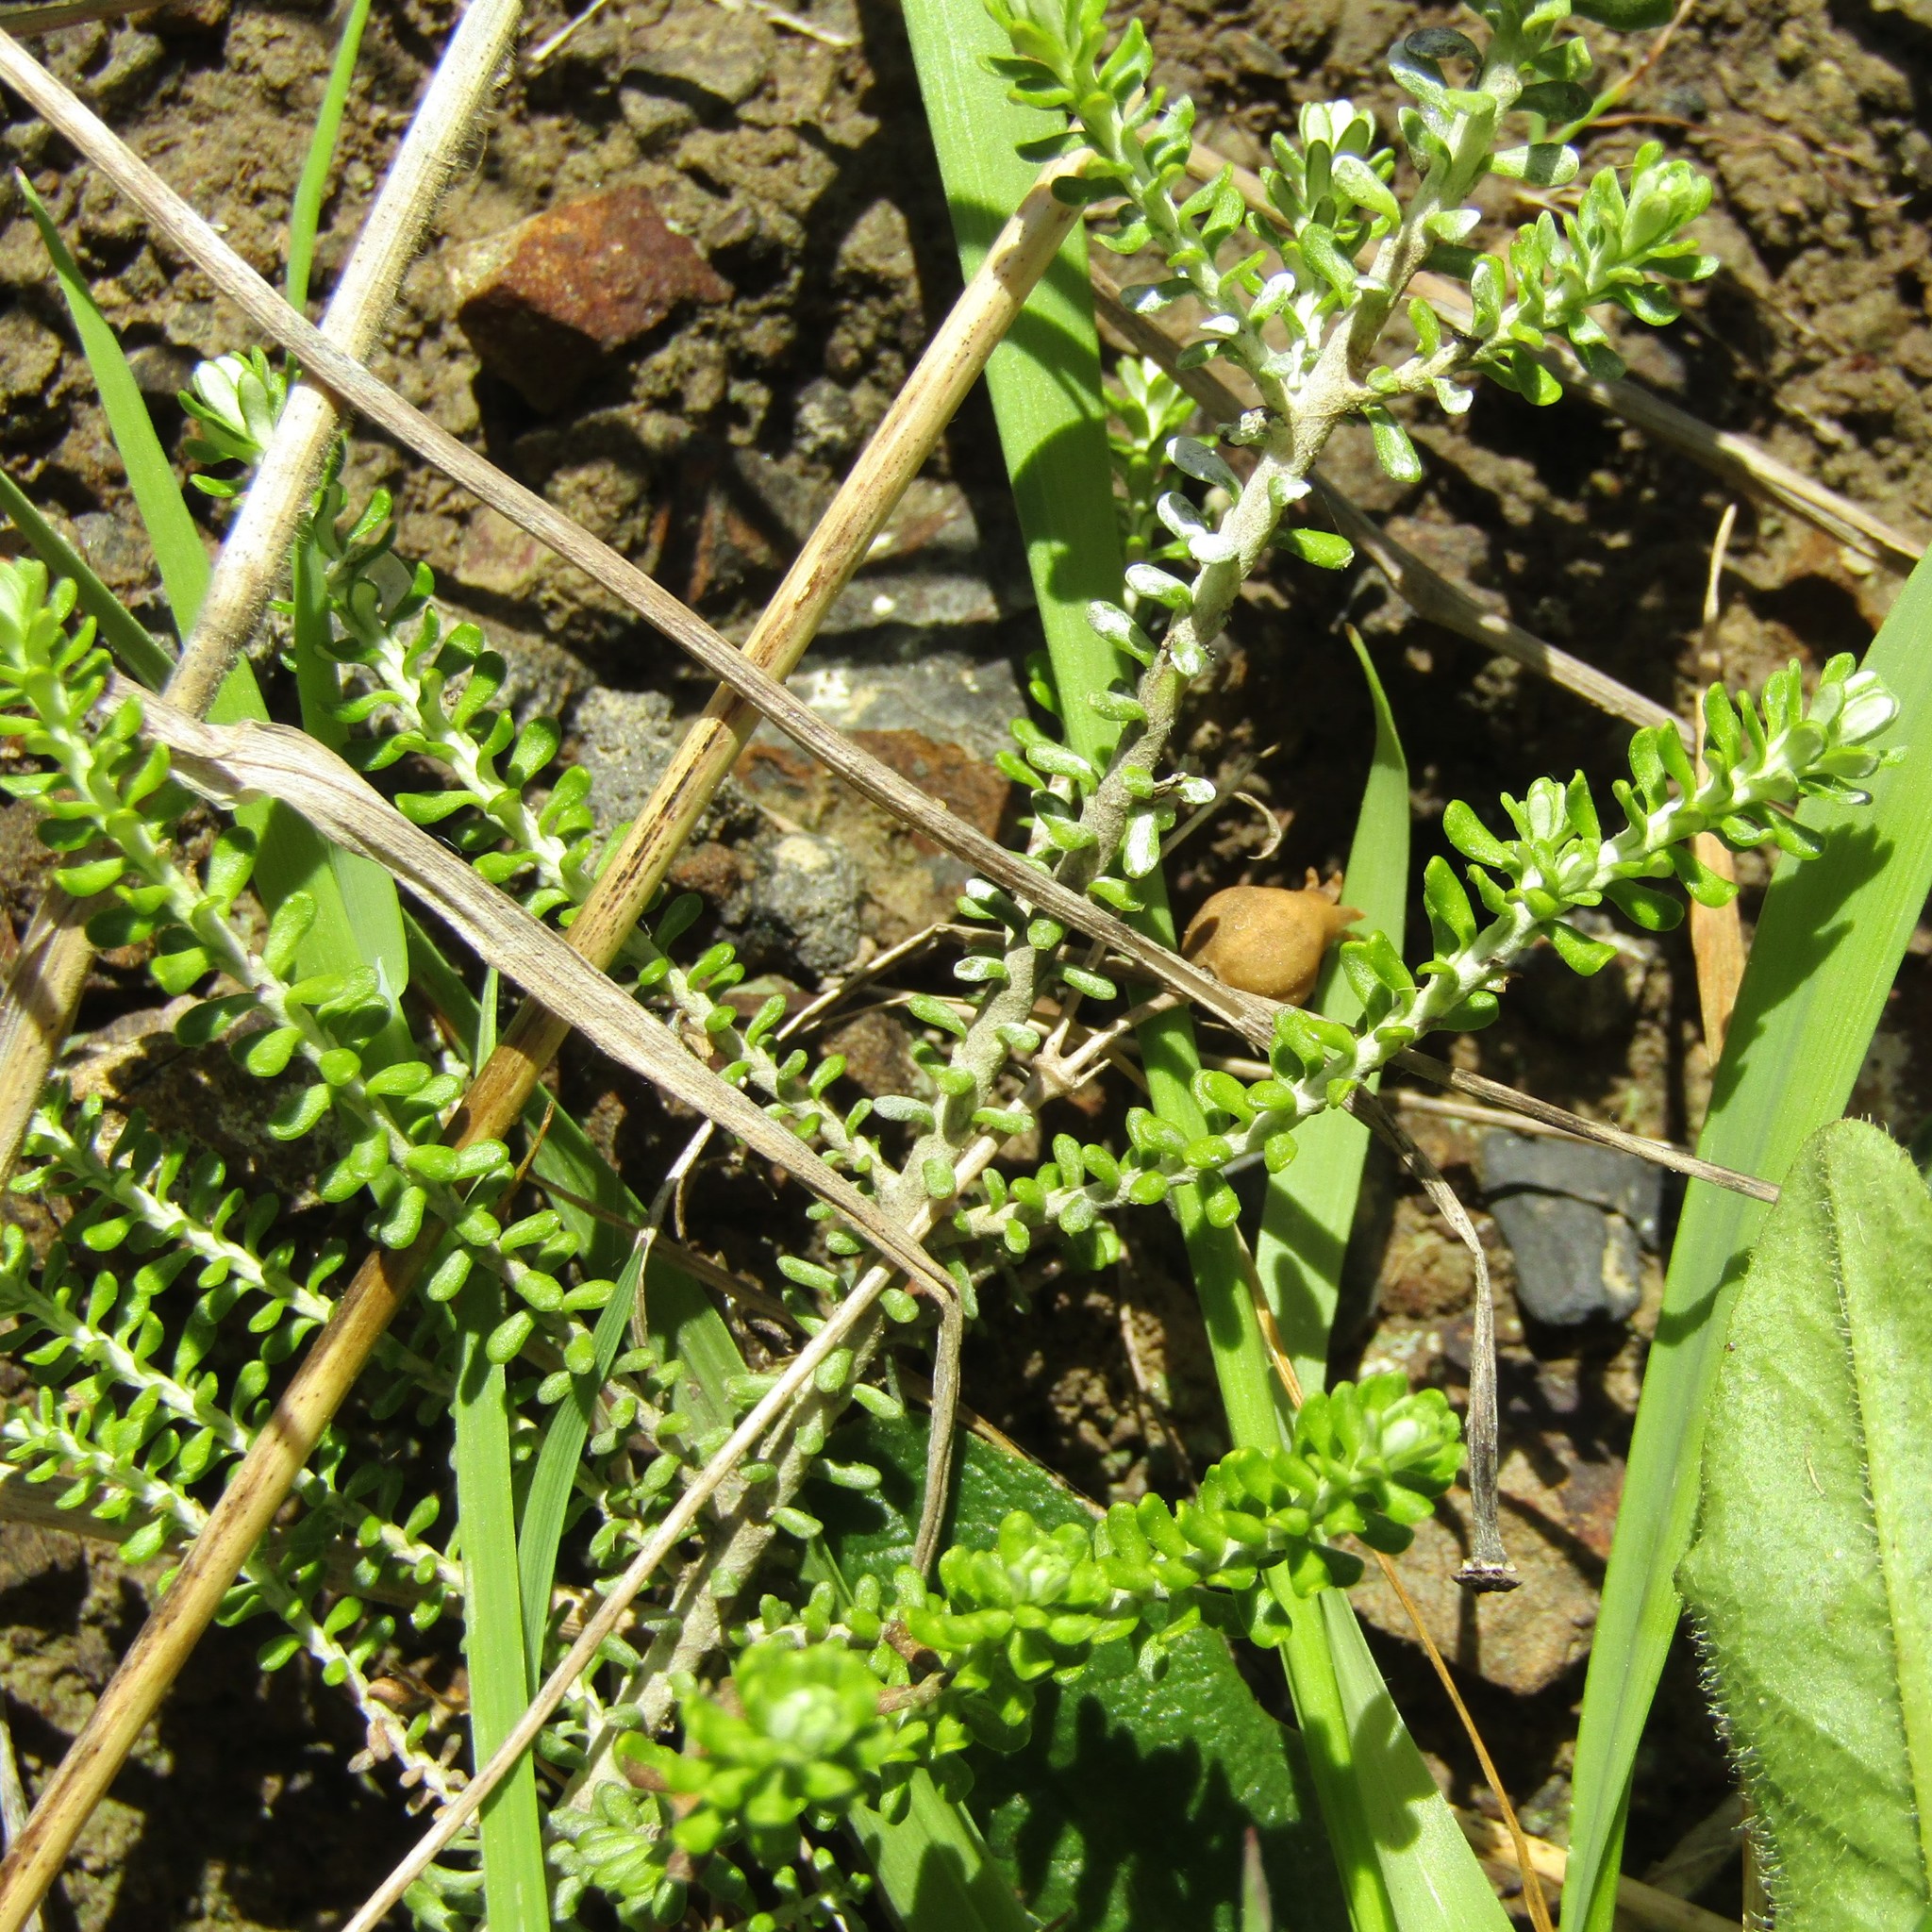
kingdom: Plantae
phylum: Tracheophyta
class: Magnoliopsida
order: Asterales
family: Asteraceae
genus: Ozothamnus
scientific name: Ozothamnus leptophyllus
